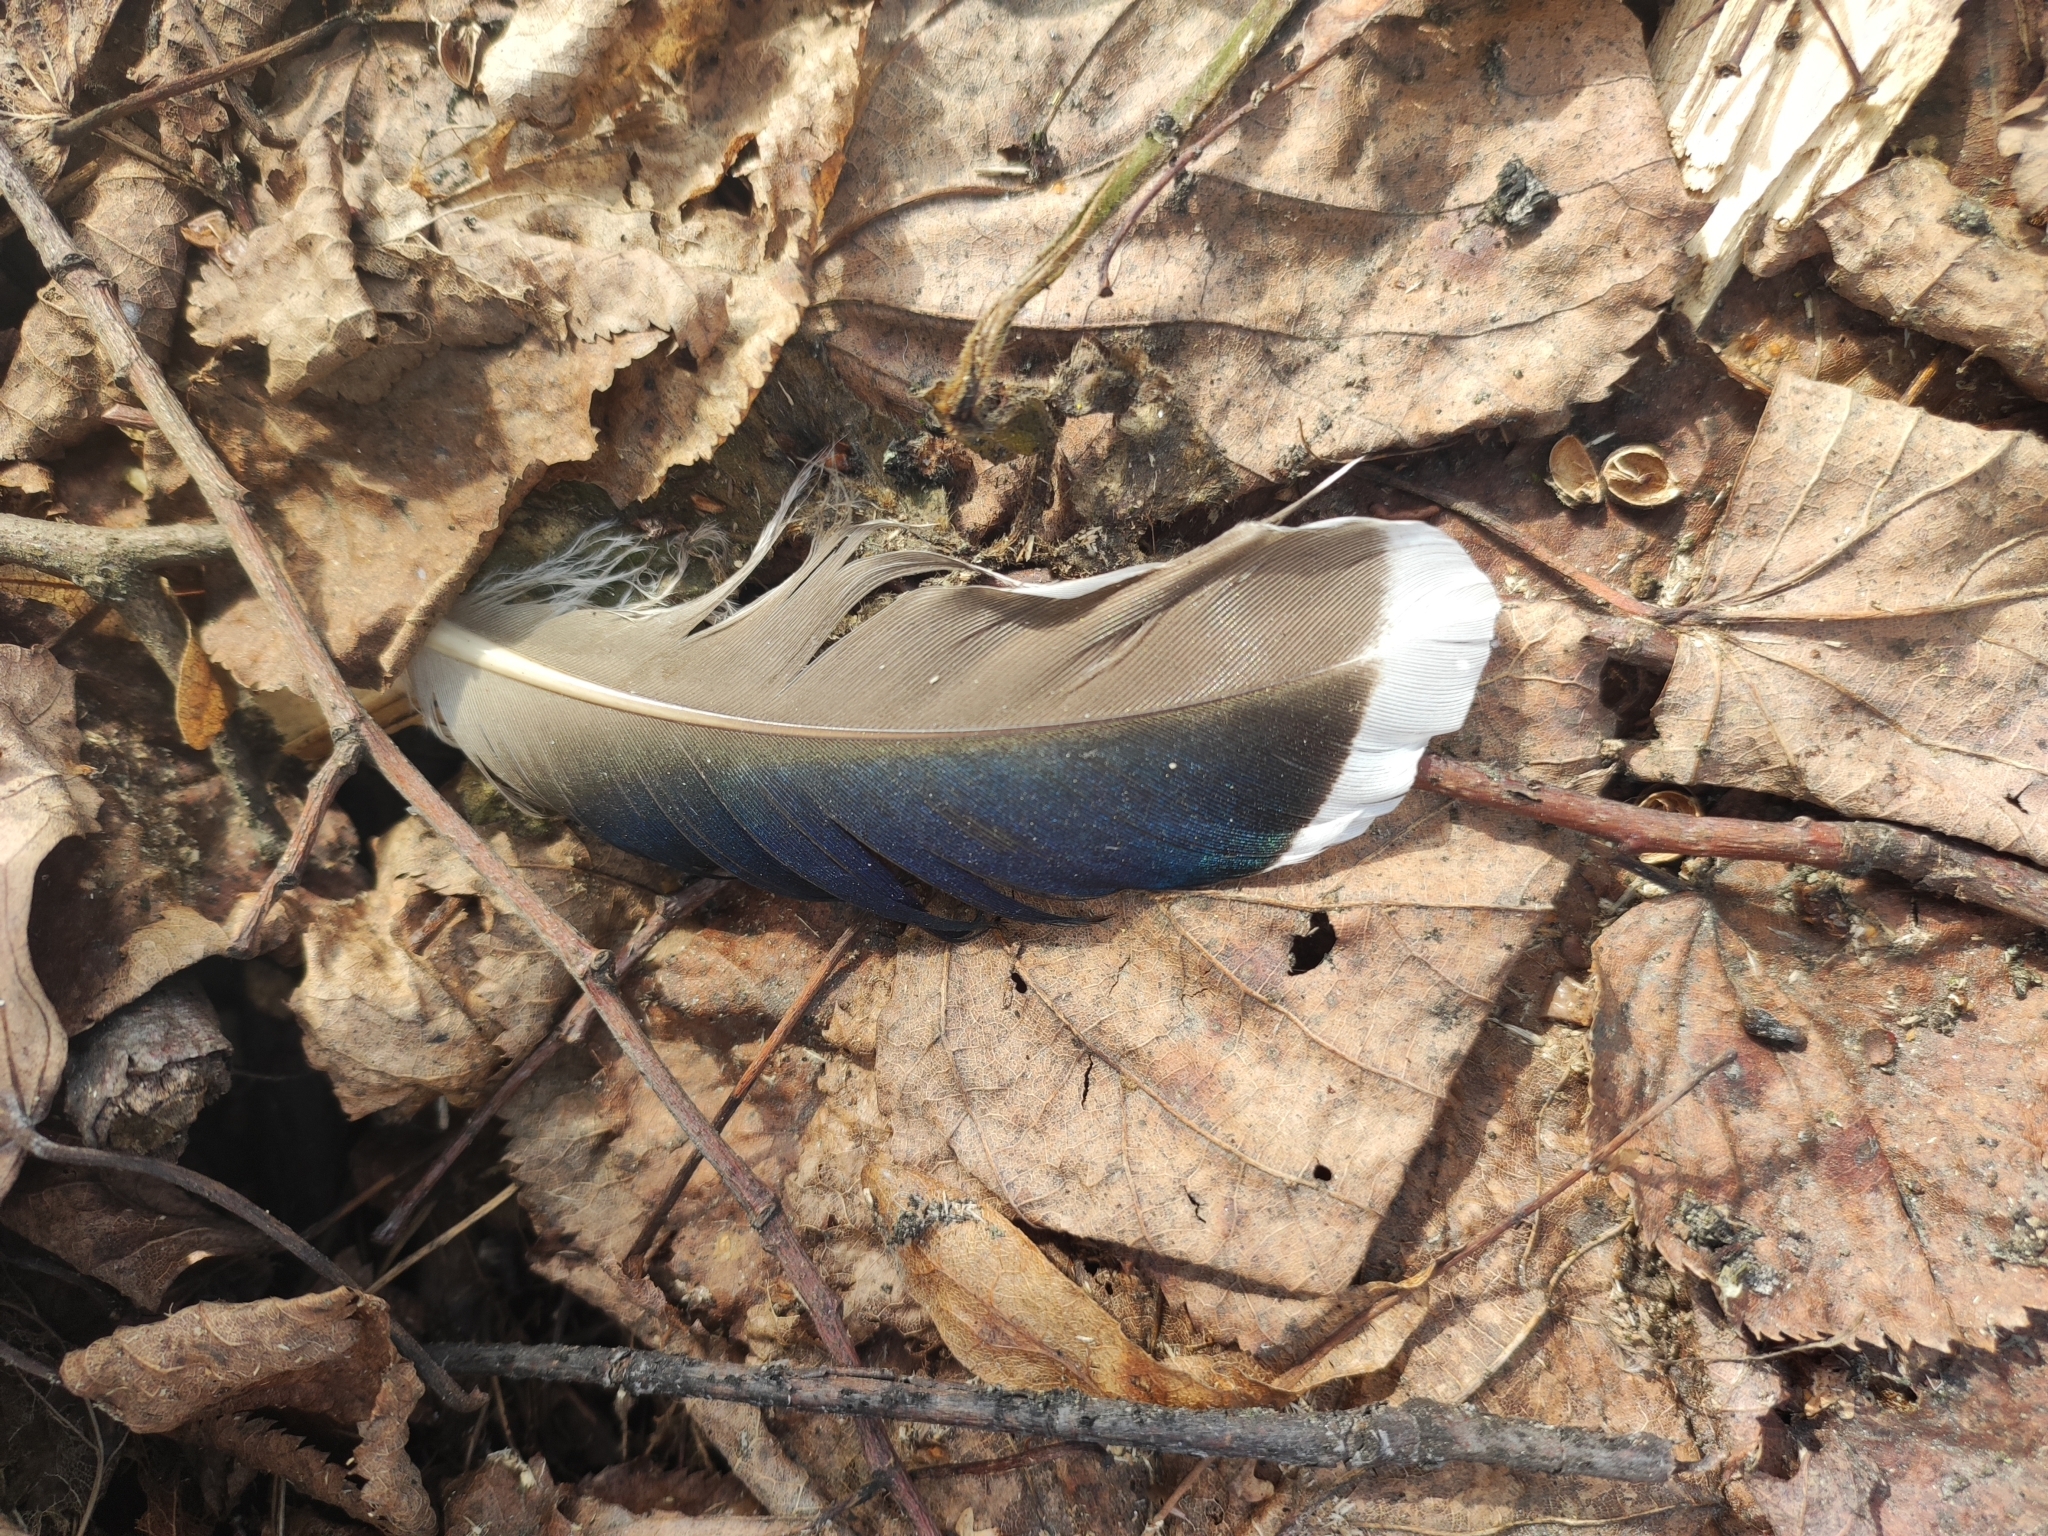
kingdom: Animalia
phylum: Chordata
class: Aves
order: Anseriformes
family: Anatidae
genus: Anas
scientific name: Anas platyrhynchos
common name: Mallard
